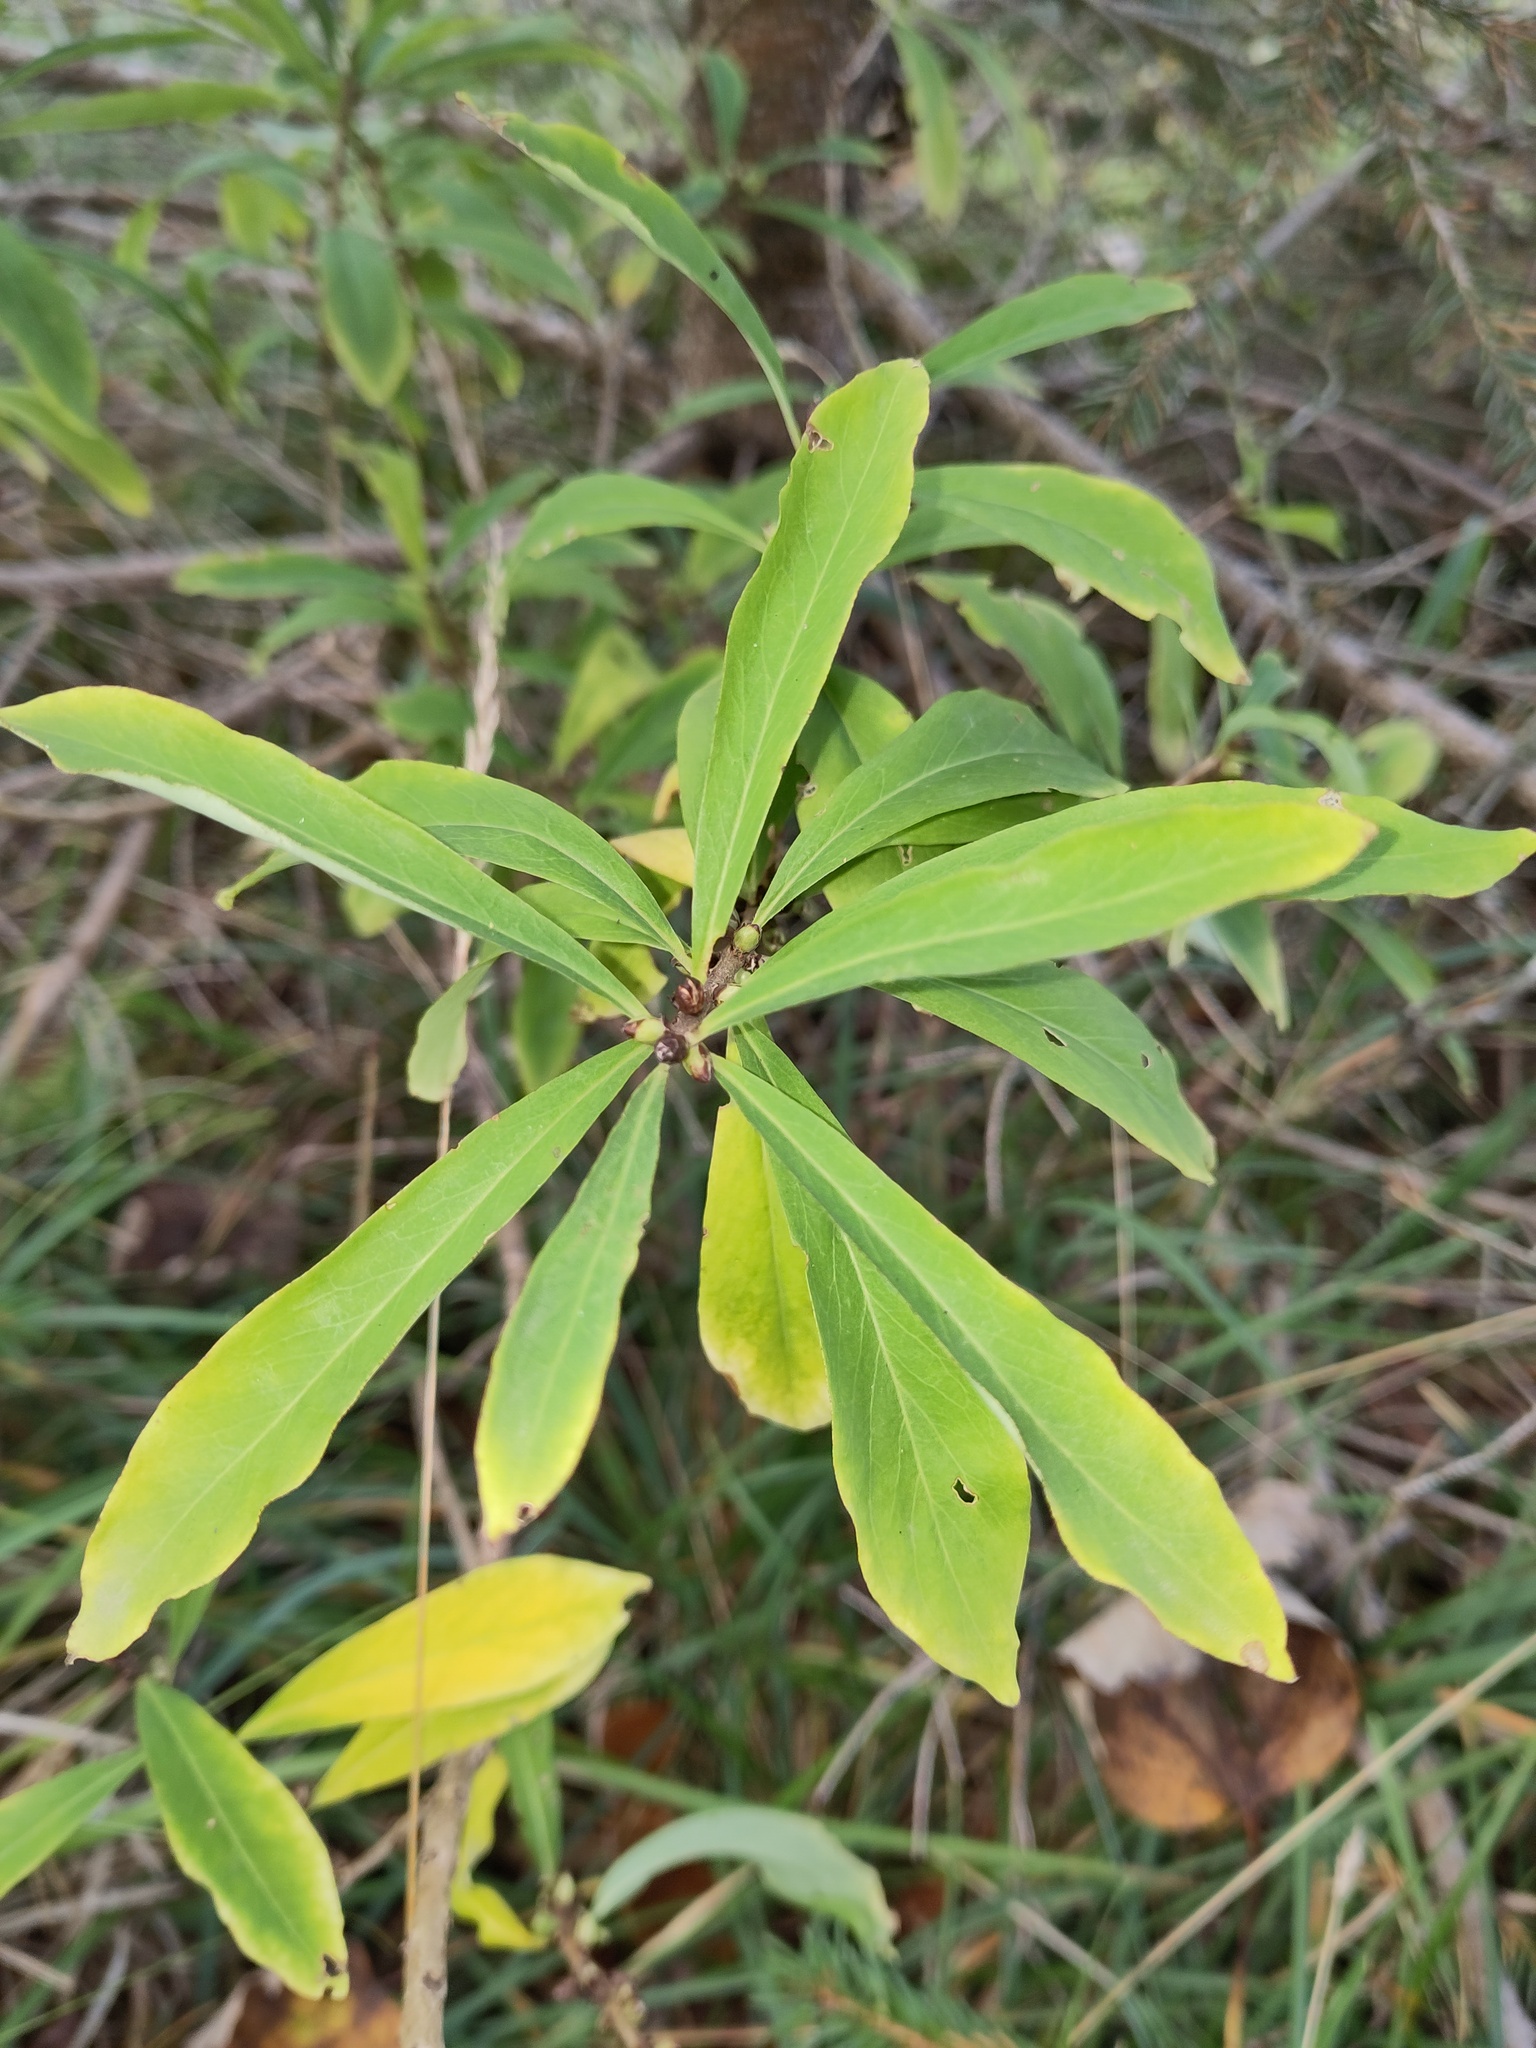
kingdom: Plantae
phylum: Tracheophyta
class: Magnoliopsida
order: Malvales
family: Thymelaeaceae
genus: Daphne
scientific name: Daphne mezereum
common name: Mezereon
